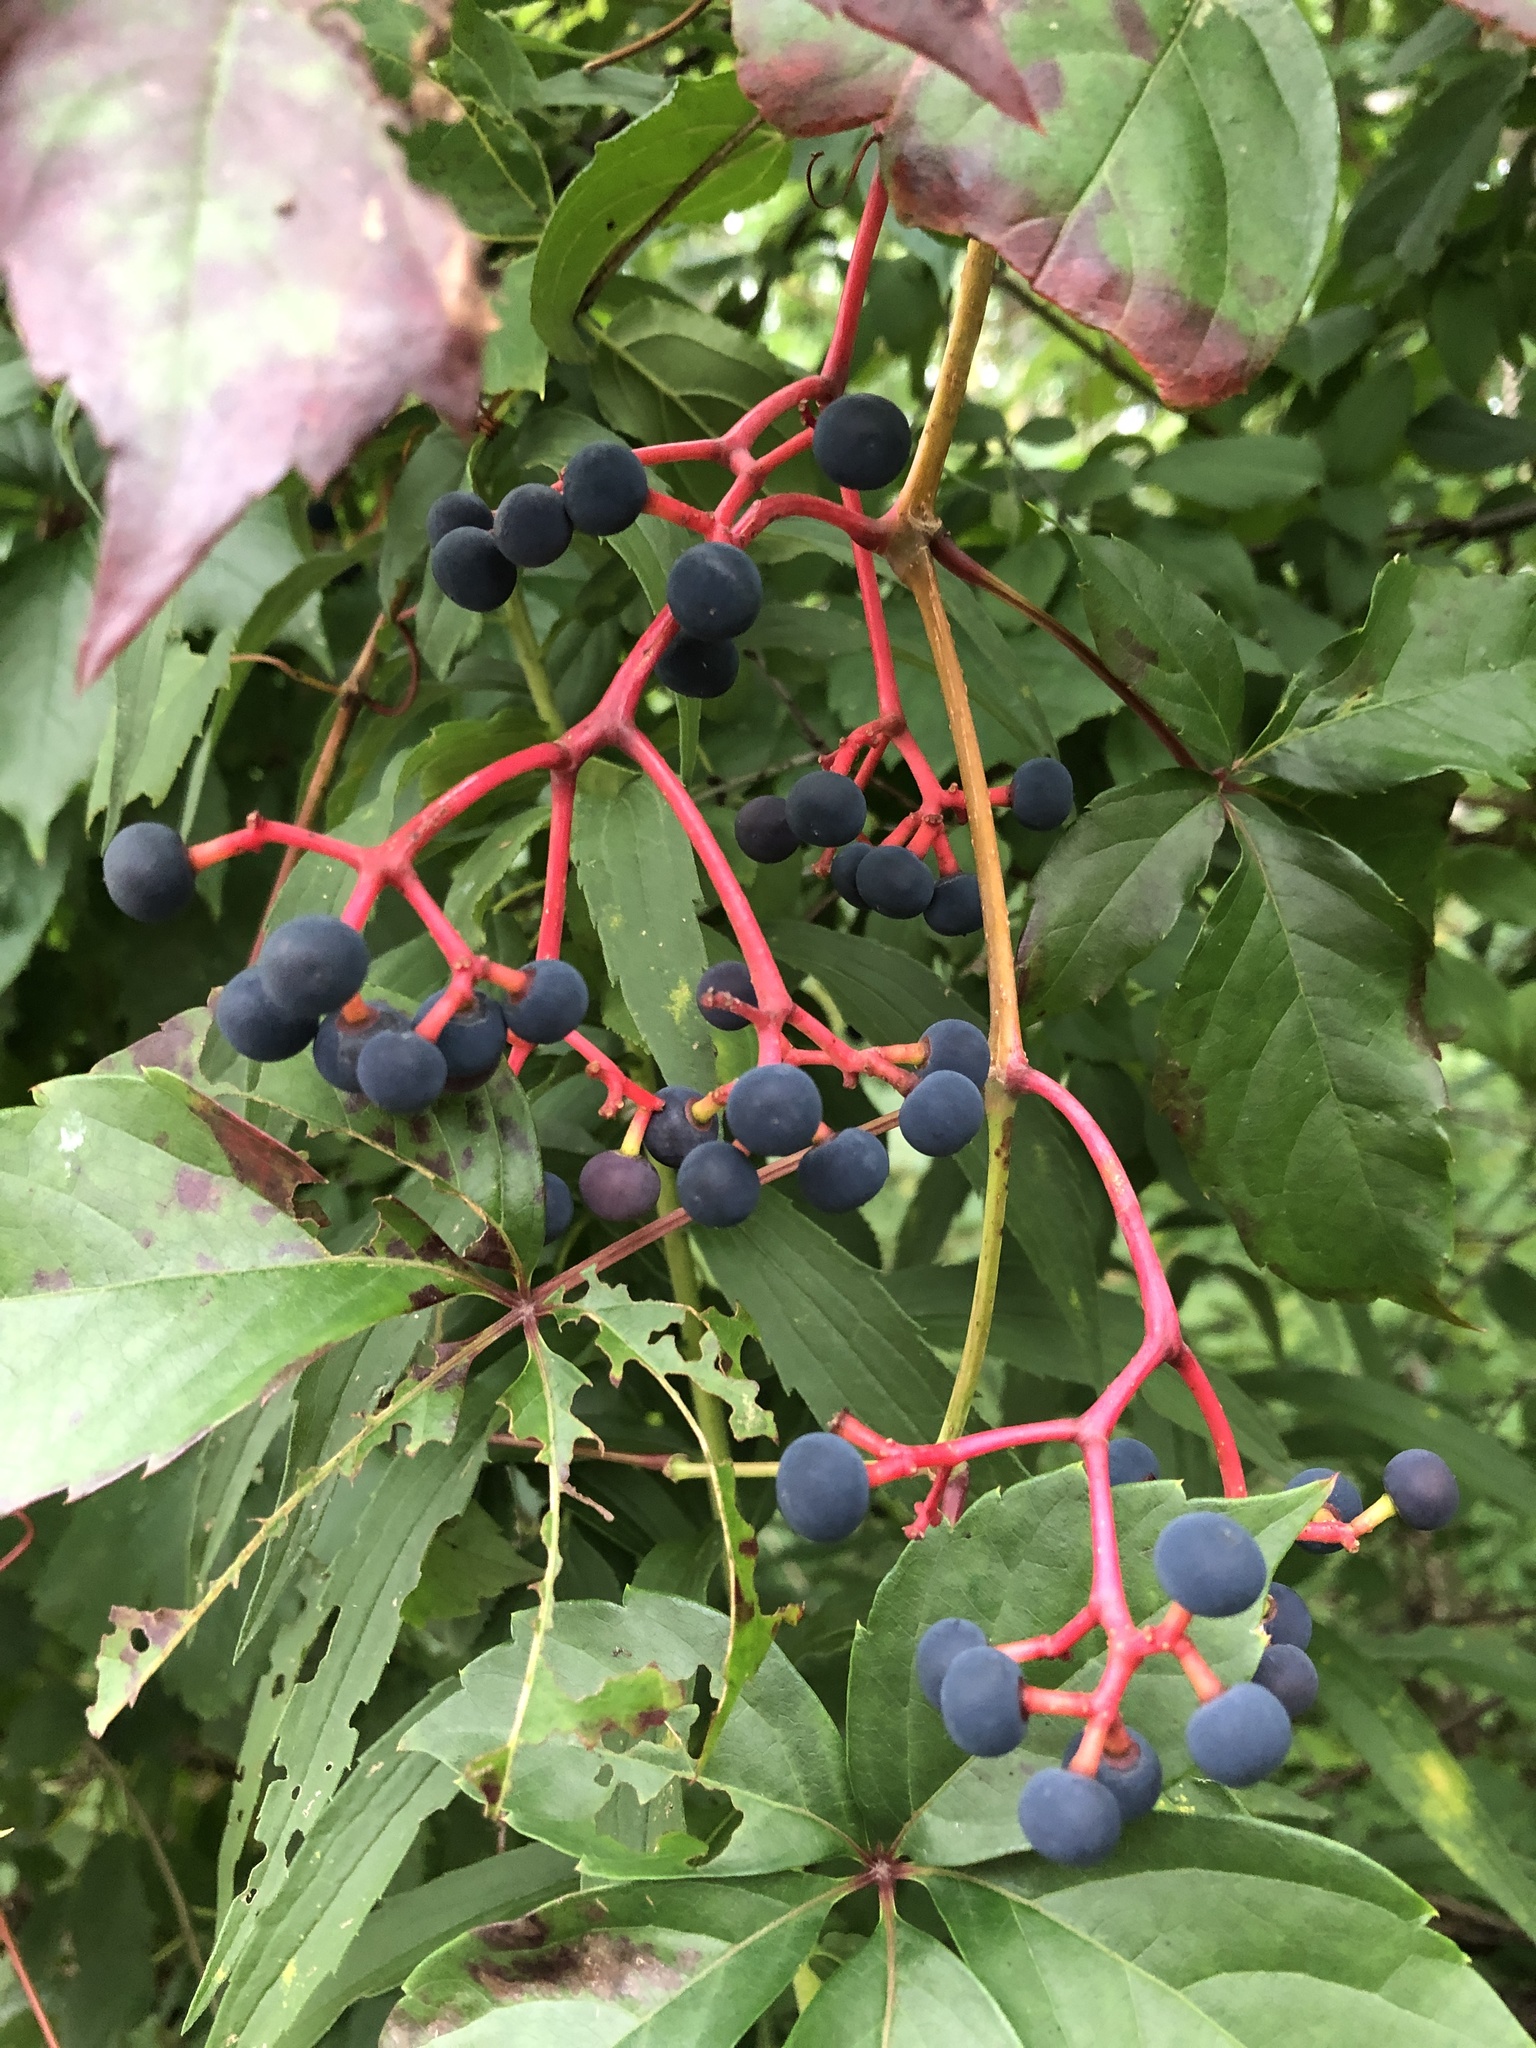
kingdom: Plantae
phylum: Tracheophyta
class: Magnoliopsida
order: Vitales
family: Vitaceae
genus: Parthenocissus
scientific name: Parthenocissus quinquefolia
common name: Virginia-creeper
